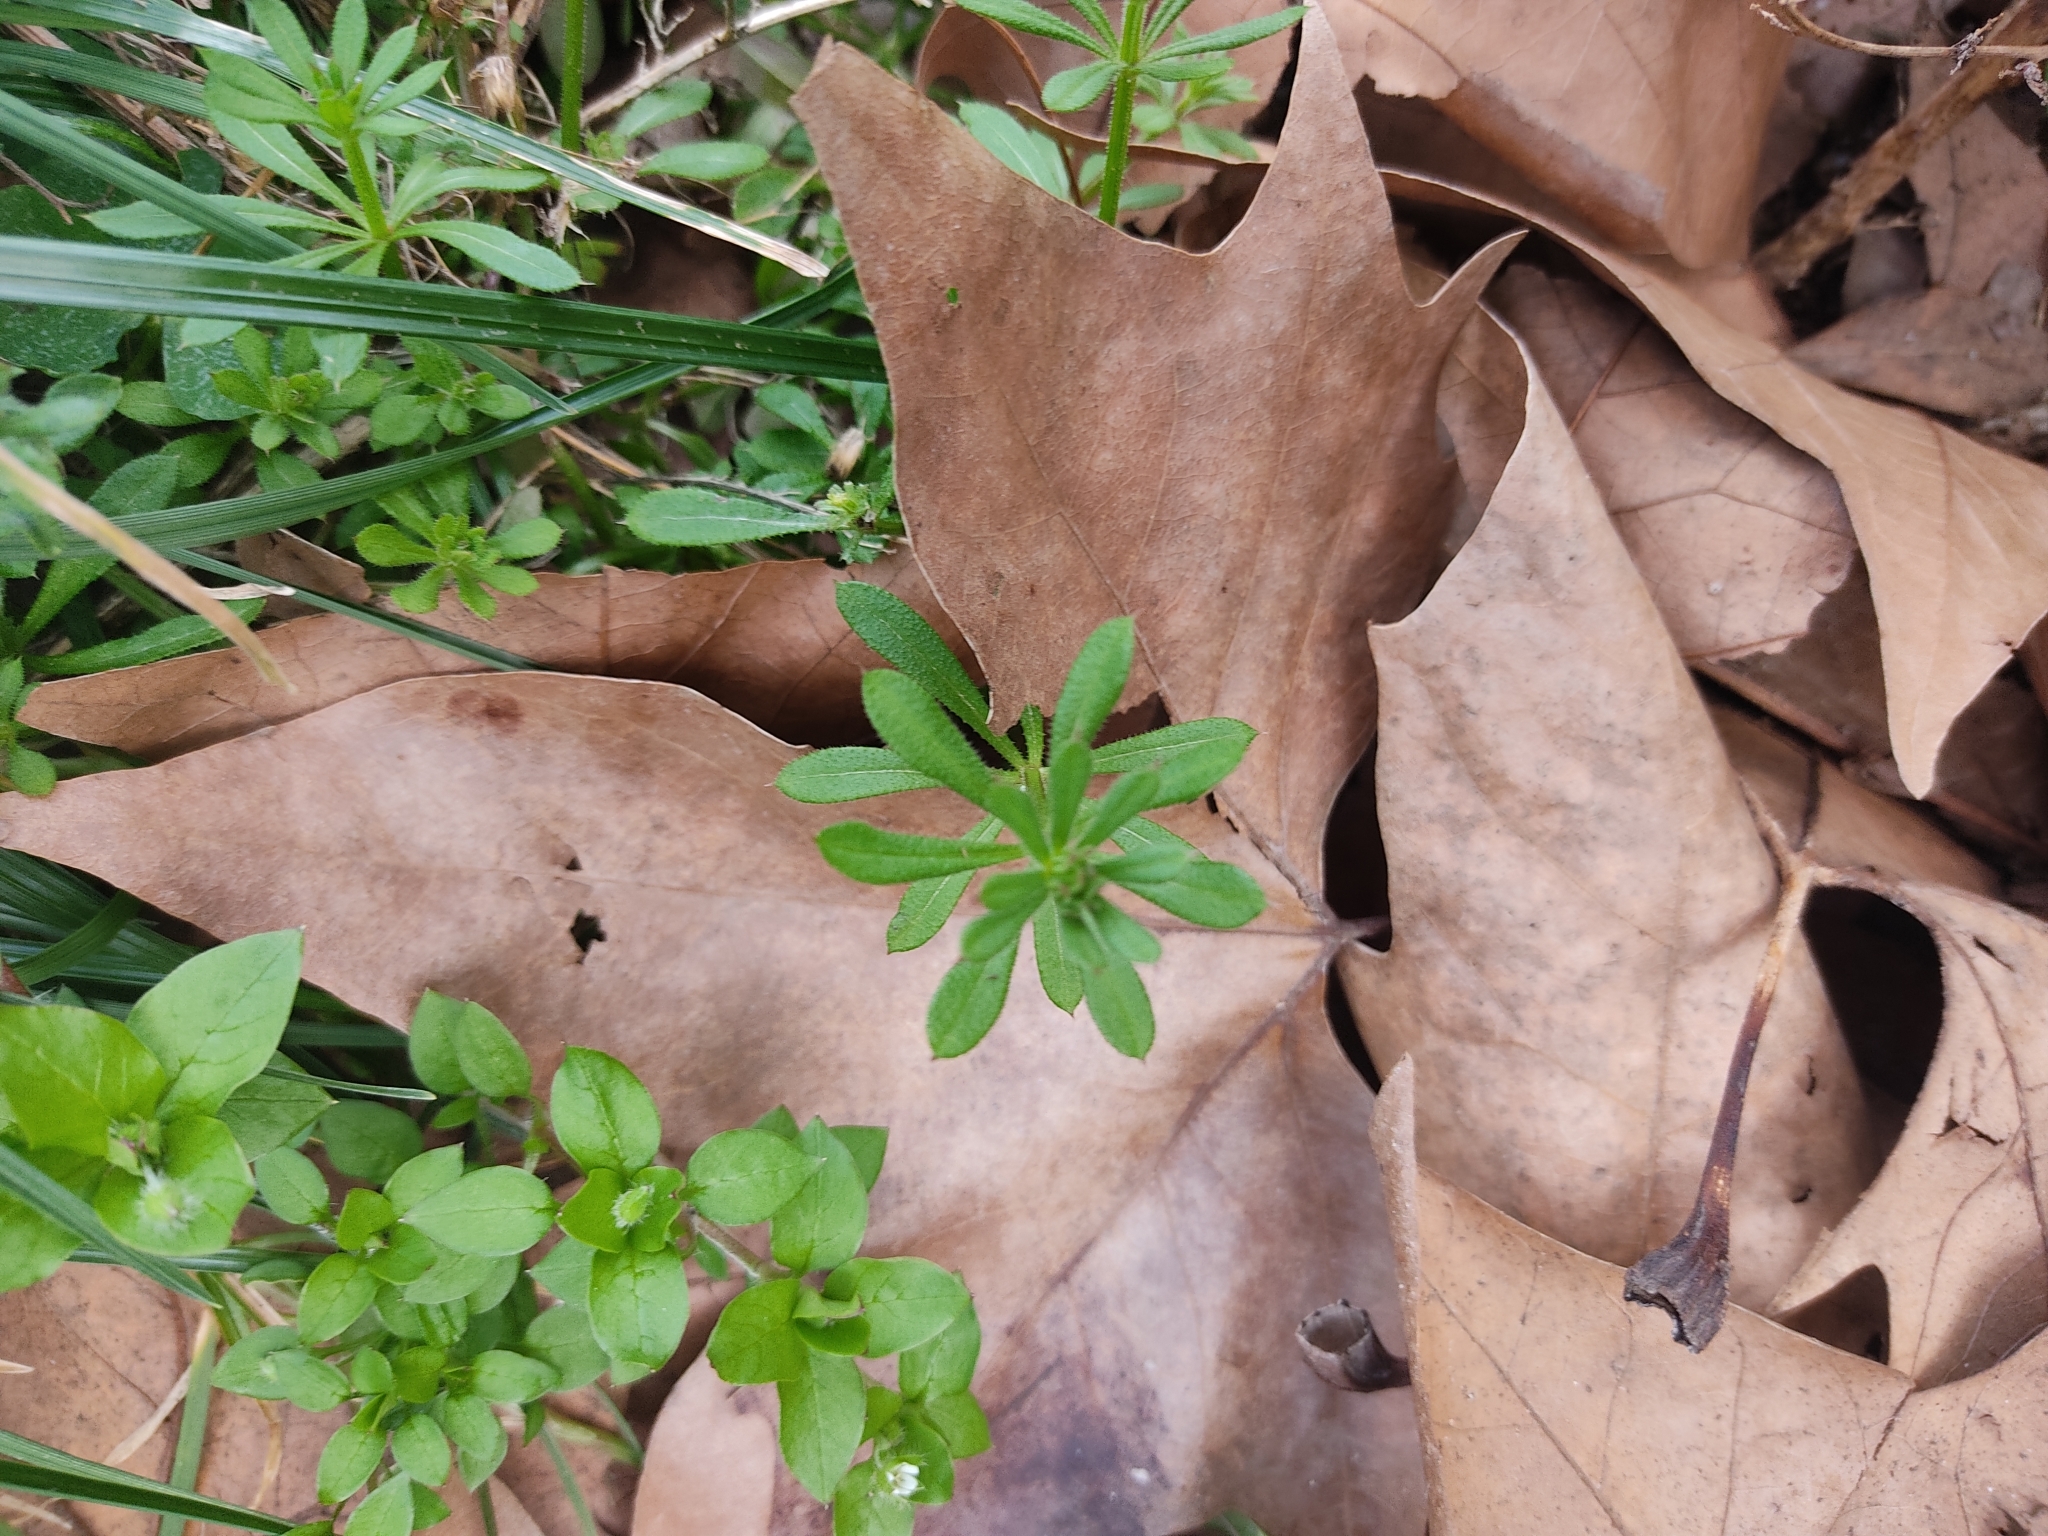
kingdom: Plantae
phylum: Tracheophyta
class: Magnoliopsida
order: Gentianales
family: Rubiaceae
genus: Galium
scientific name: Galium aparine
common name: Cleavers
